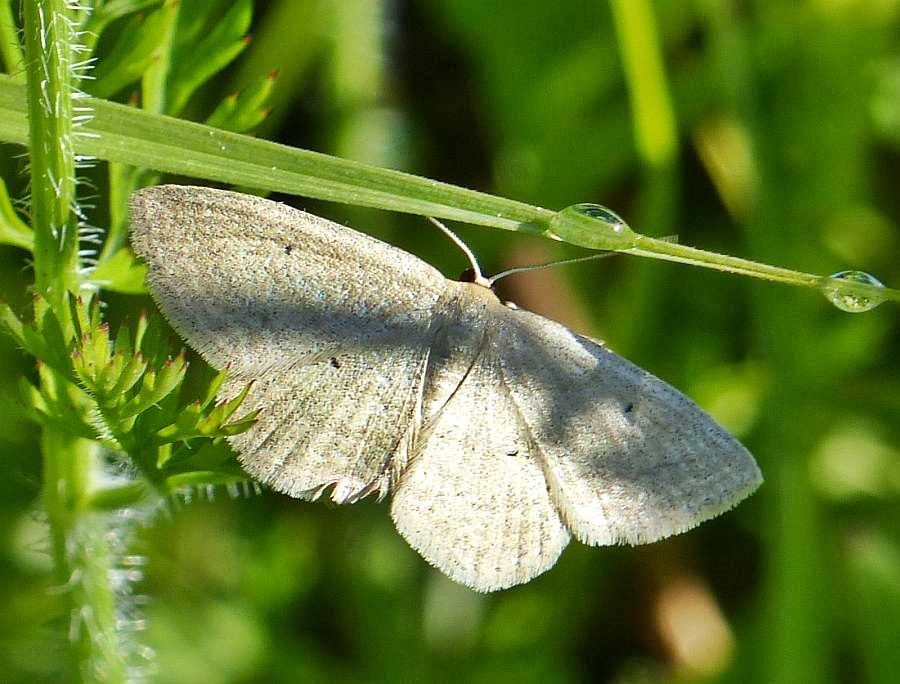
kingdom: Animalia
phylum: Arthropoda
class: Insecta
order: Lepidoptera
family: Geometridae
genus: Scopula
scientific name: Scopula inductata
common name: Soft-lined wave
